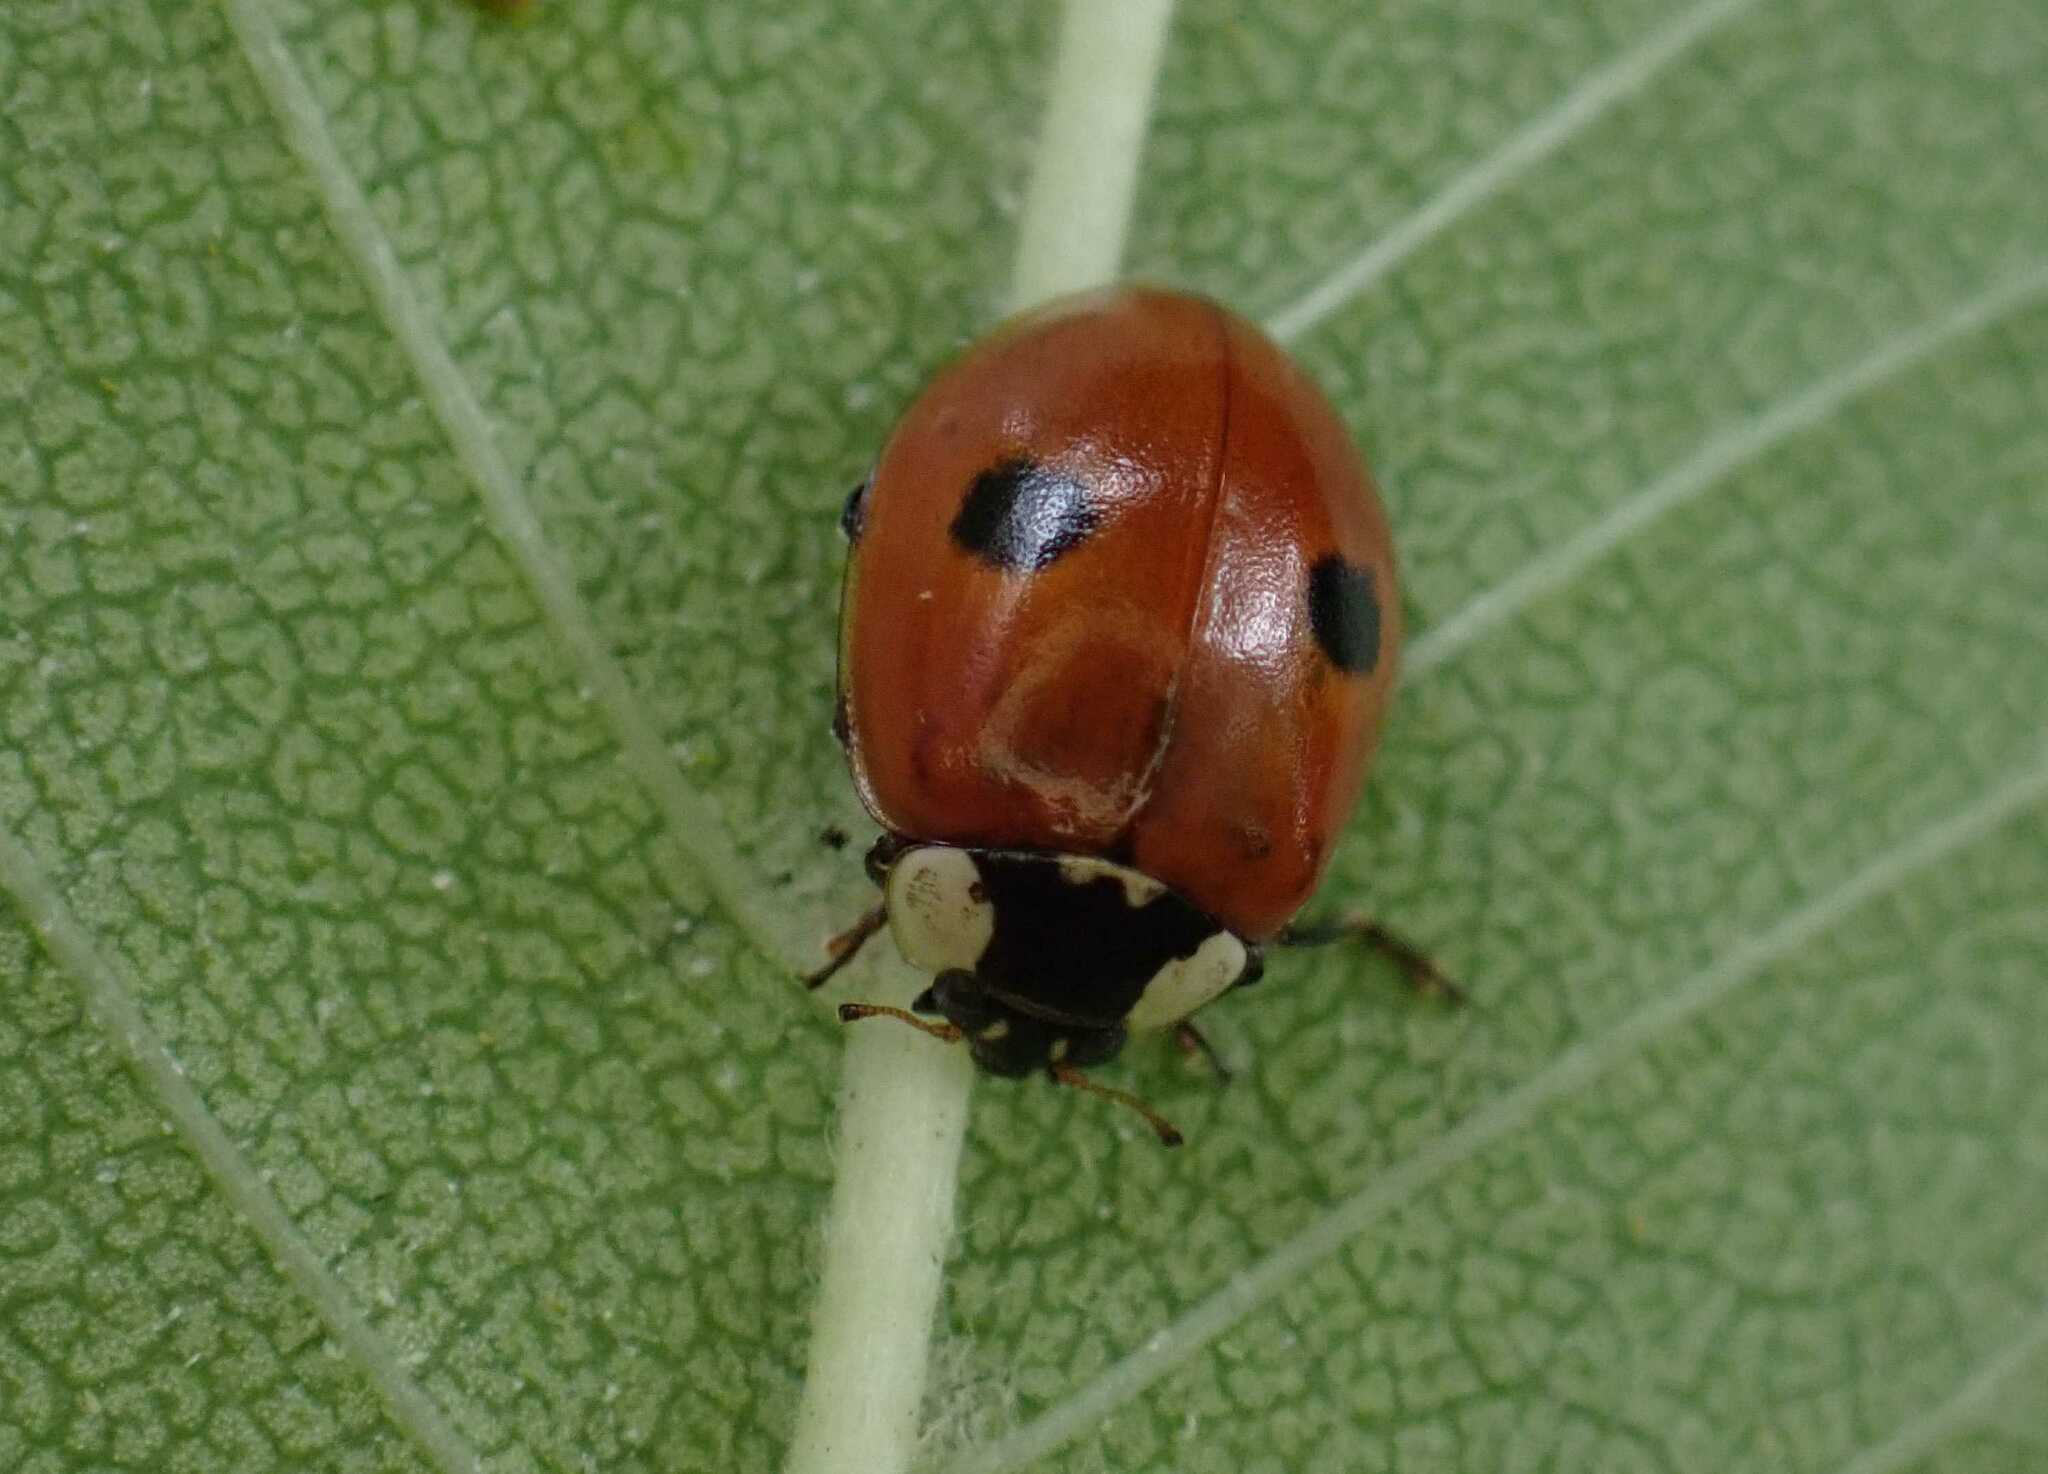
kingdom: Animalia
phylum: Arthropoda
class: Insecta
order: Coleoptera
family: Coccinellidae
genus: Adalia
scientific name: Adalia bipunctata
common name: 2-spot ladybird
